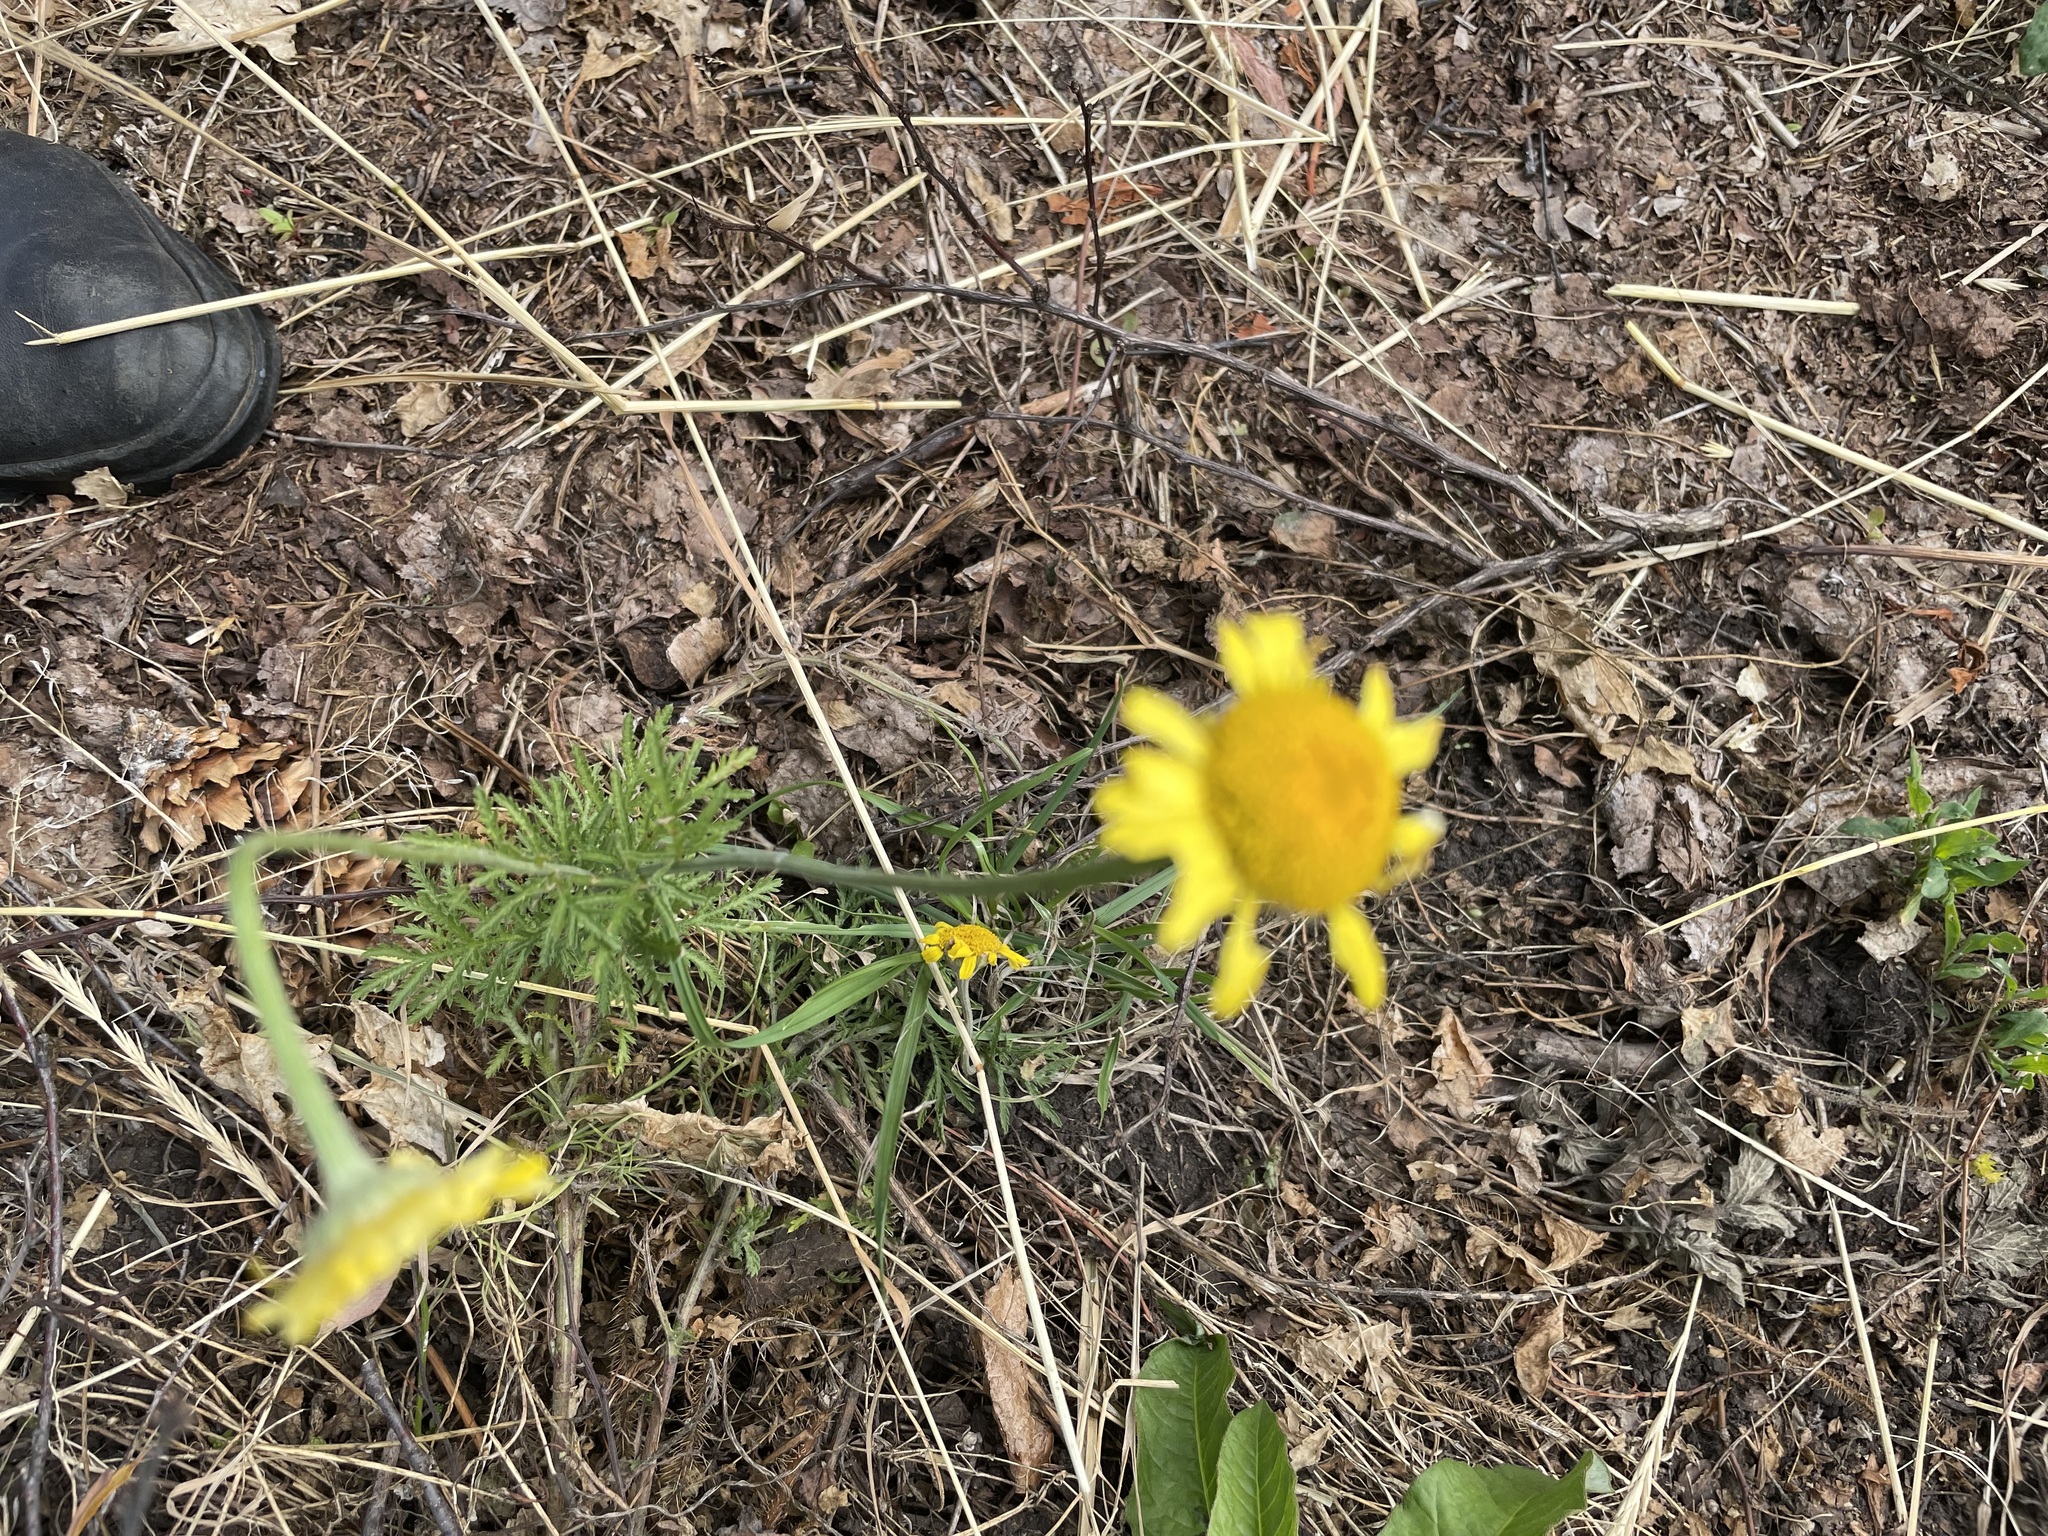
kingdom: Plantae
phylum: Tracheophyta
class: Magnoliopsida
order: Asterales
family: Asteraceae
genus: Cota
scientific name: Cota tinctoria
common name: Golden chamomile
